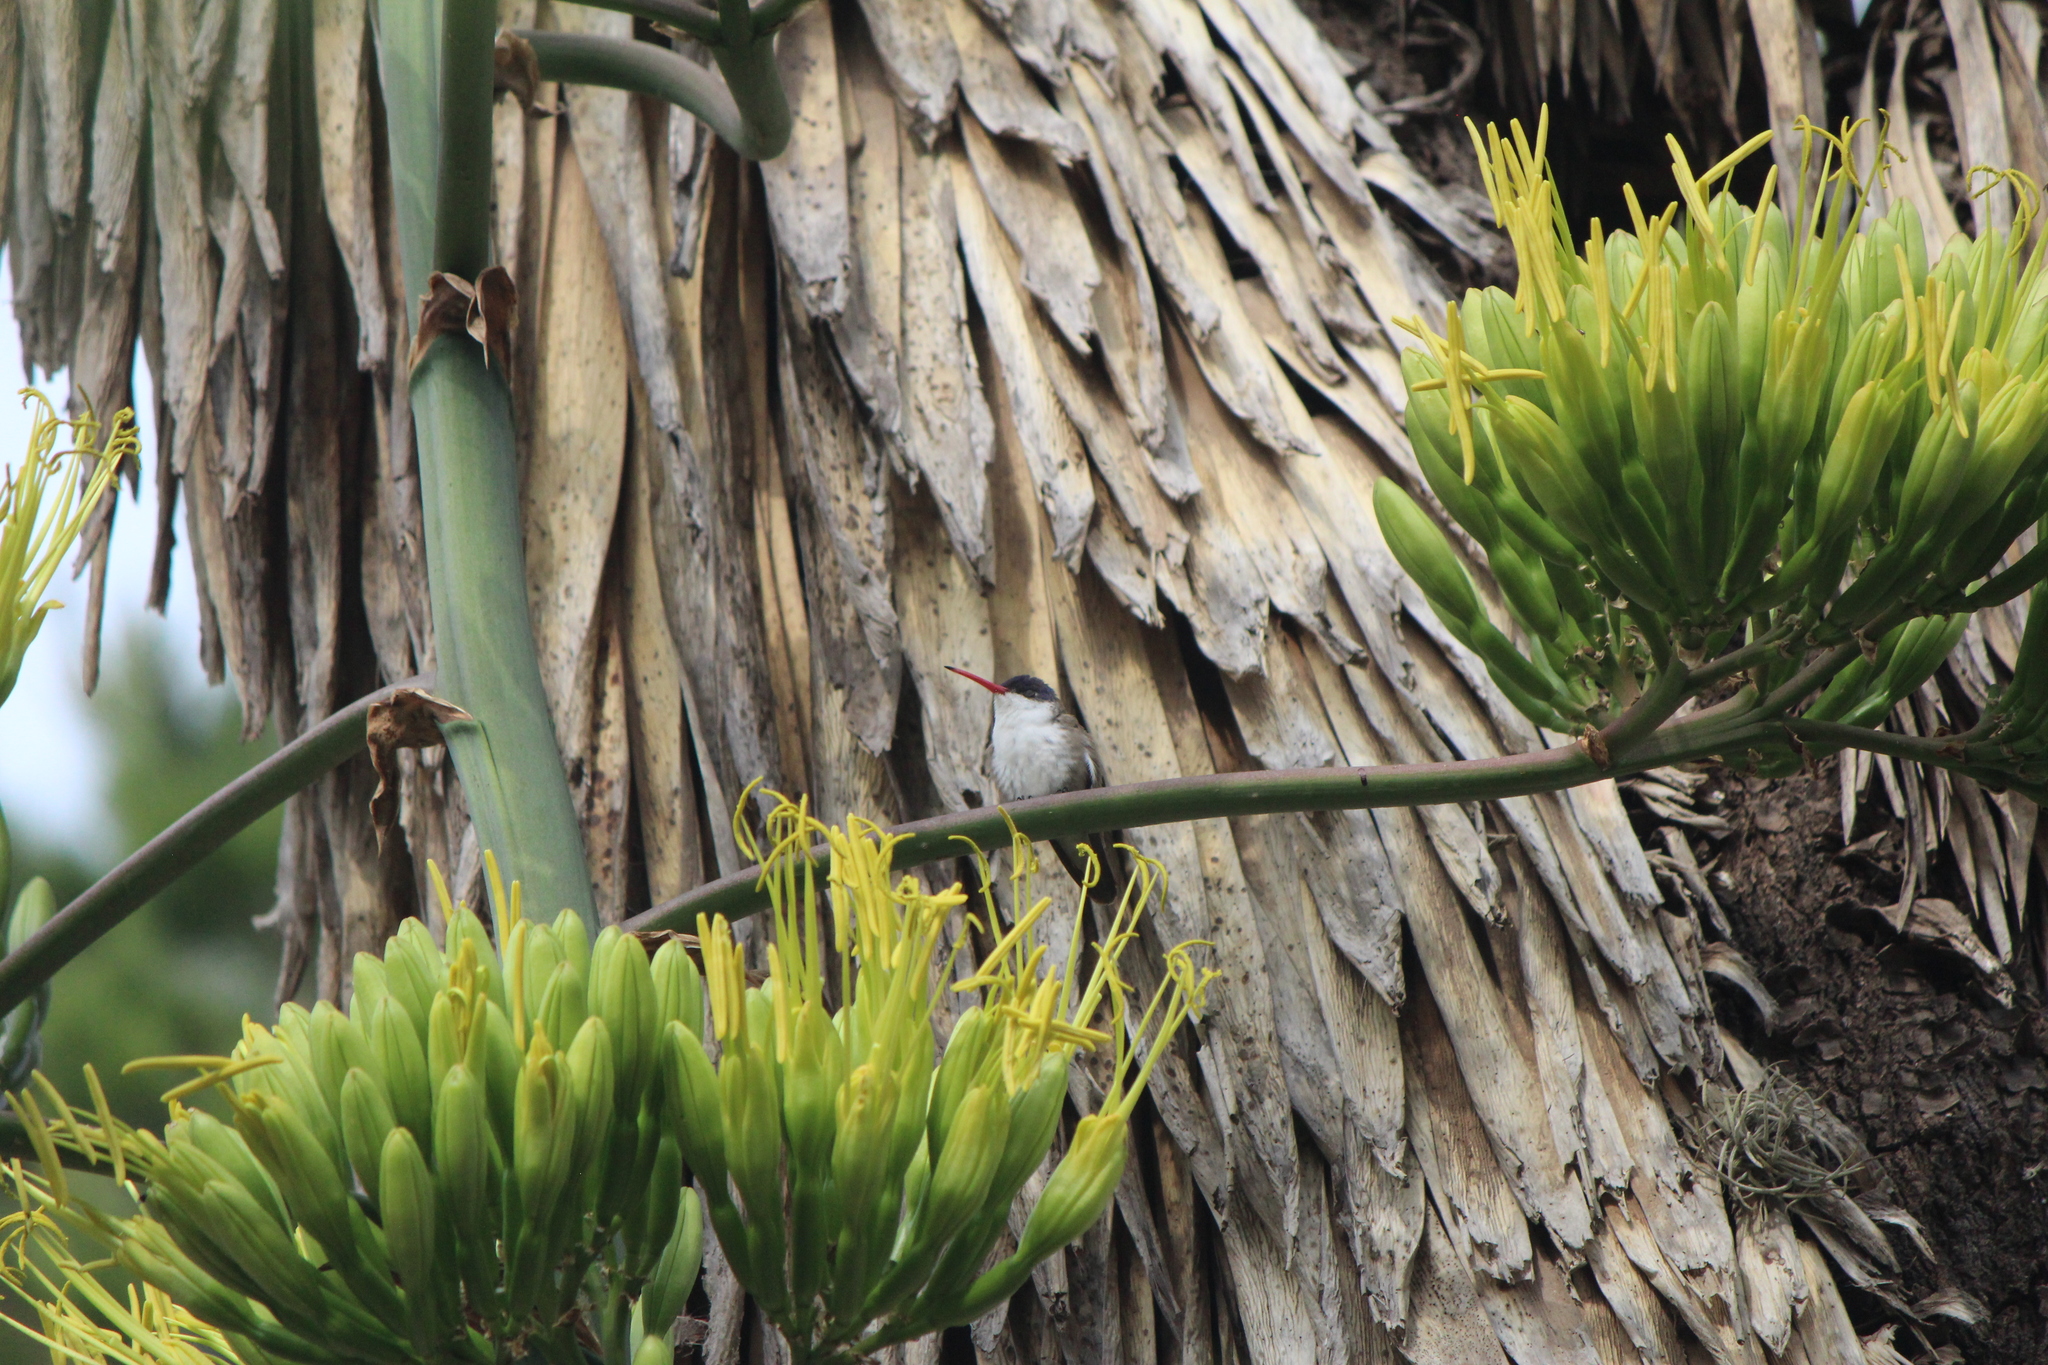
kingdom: Animalia
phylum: Chordata
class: Aves
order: Apodiformes
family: Trochilidae
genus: Leucolia
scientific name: Leucolia violiceps
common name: Violet-crowned hummingbird
